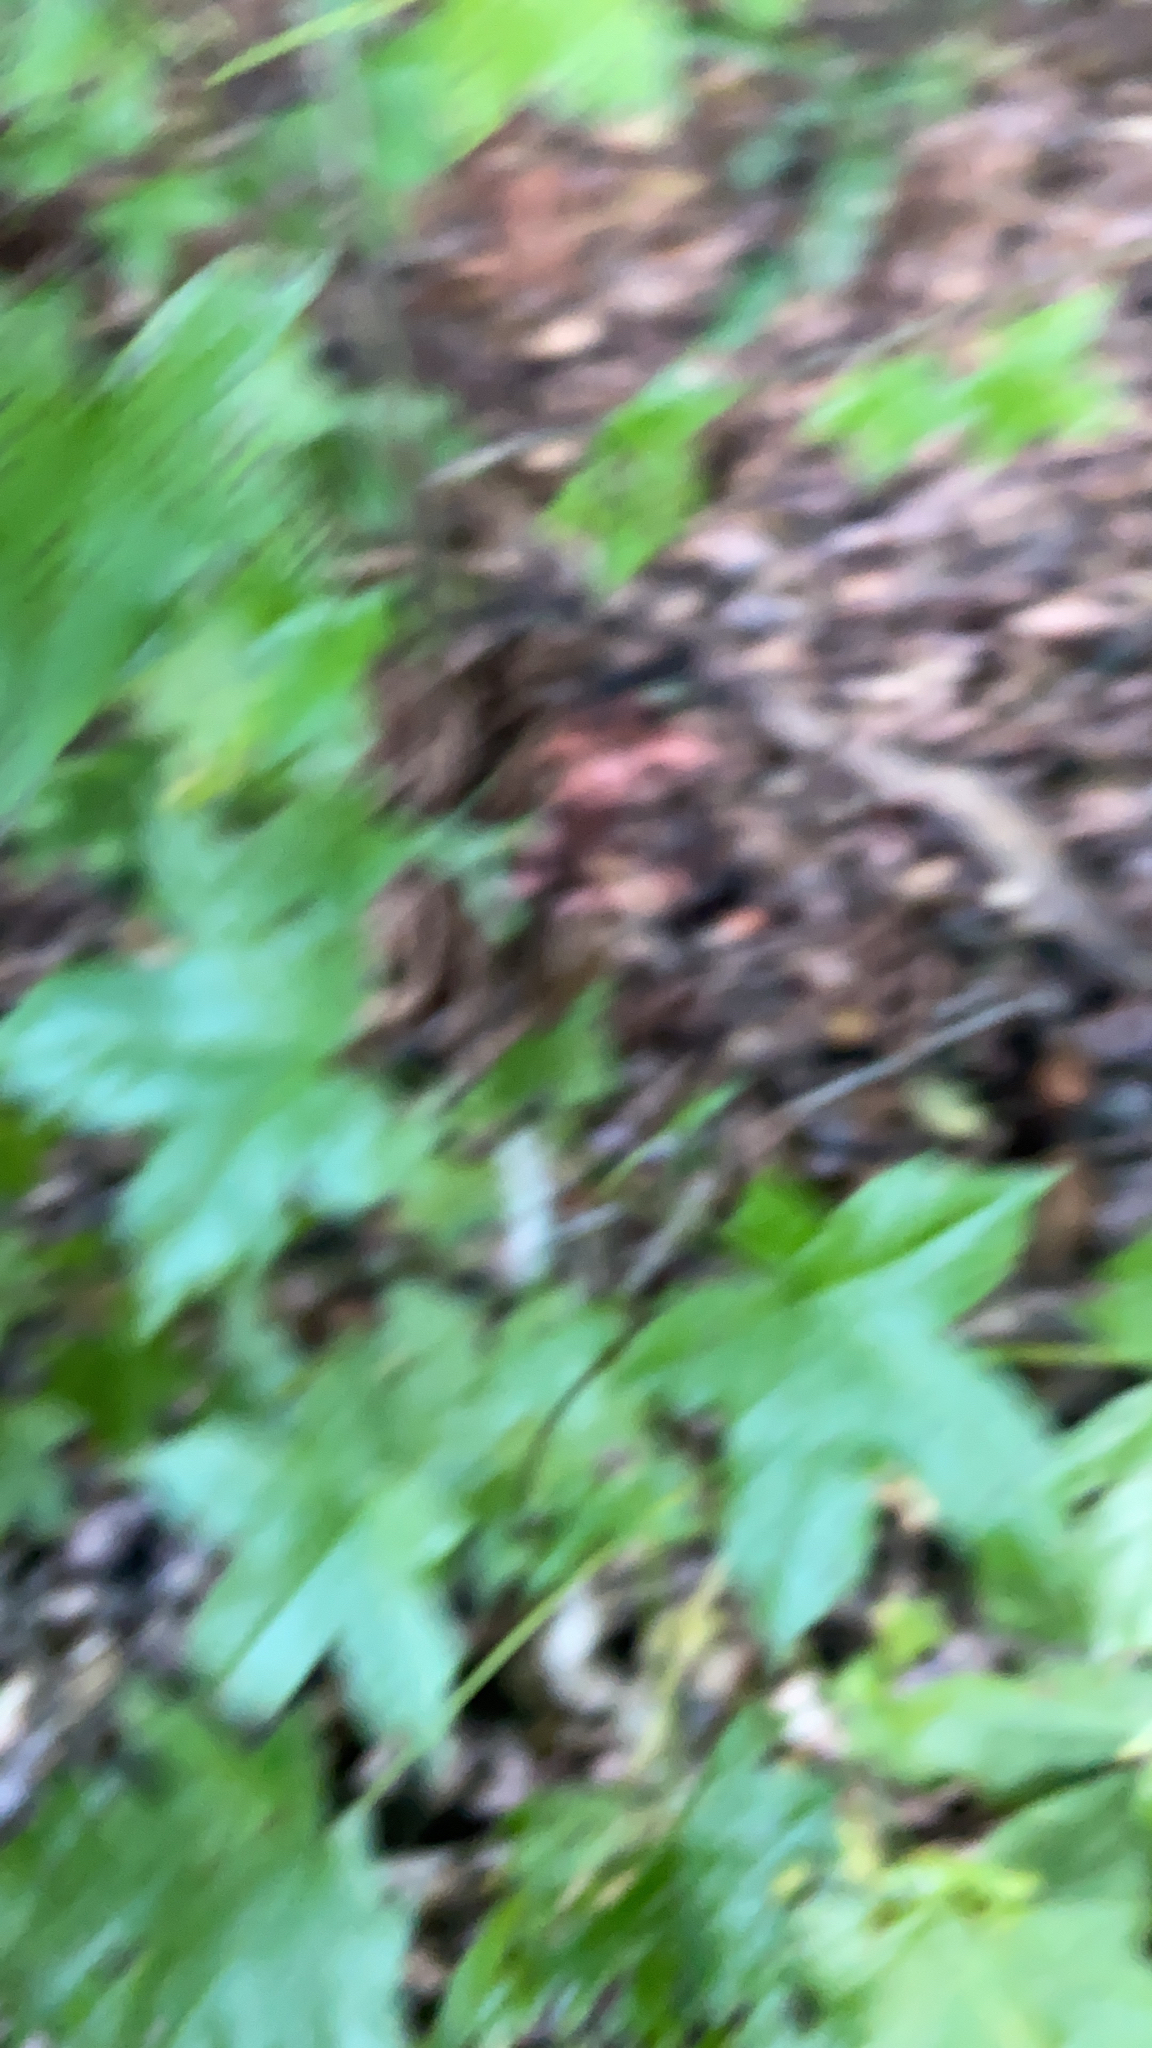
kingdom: Plantae
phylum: Tracheophyta
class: Magnoliopsida
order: Saxifragales
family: Altingiaceae
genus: Liquidambar
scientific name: Liquidambar styraciflua
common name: Sweet gum
